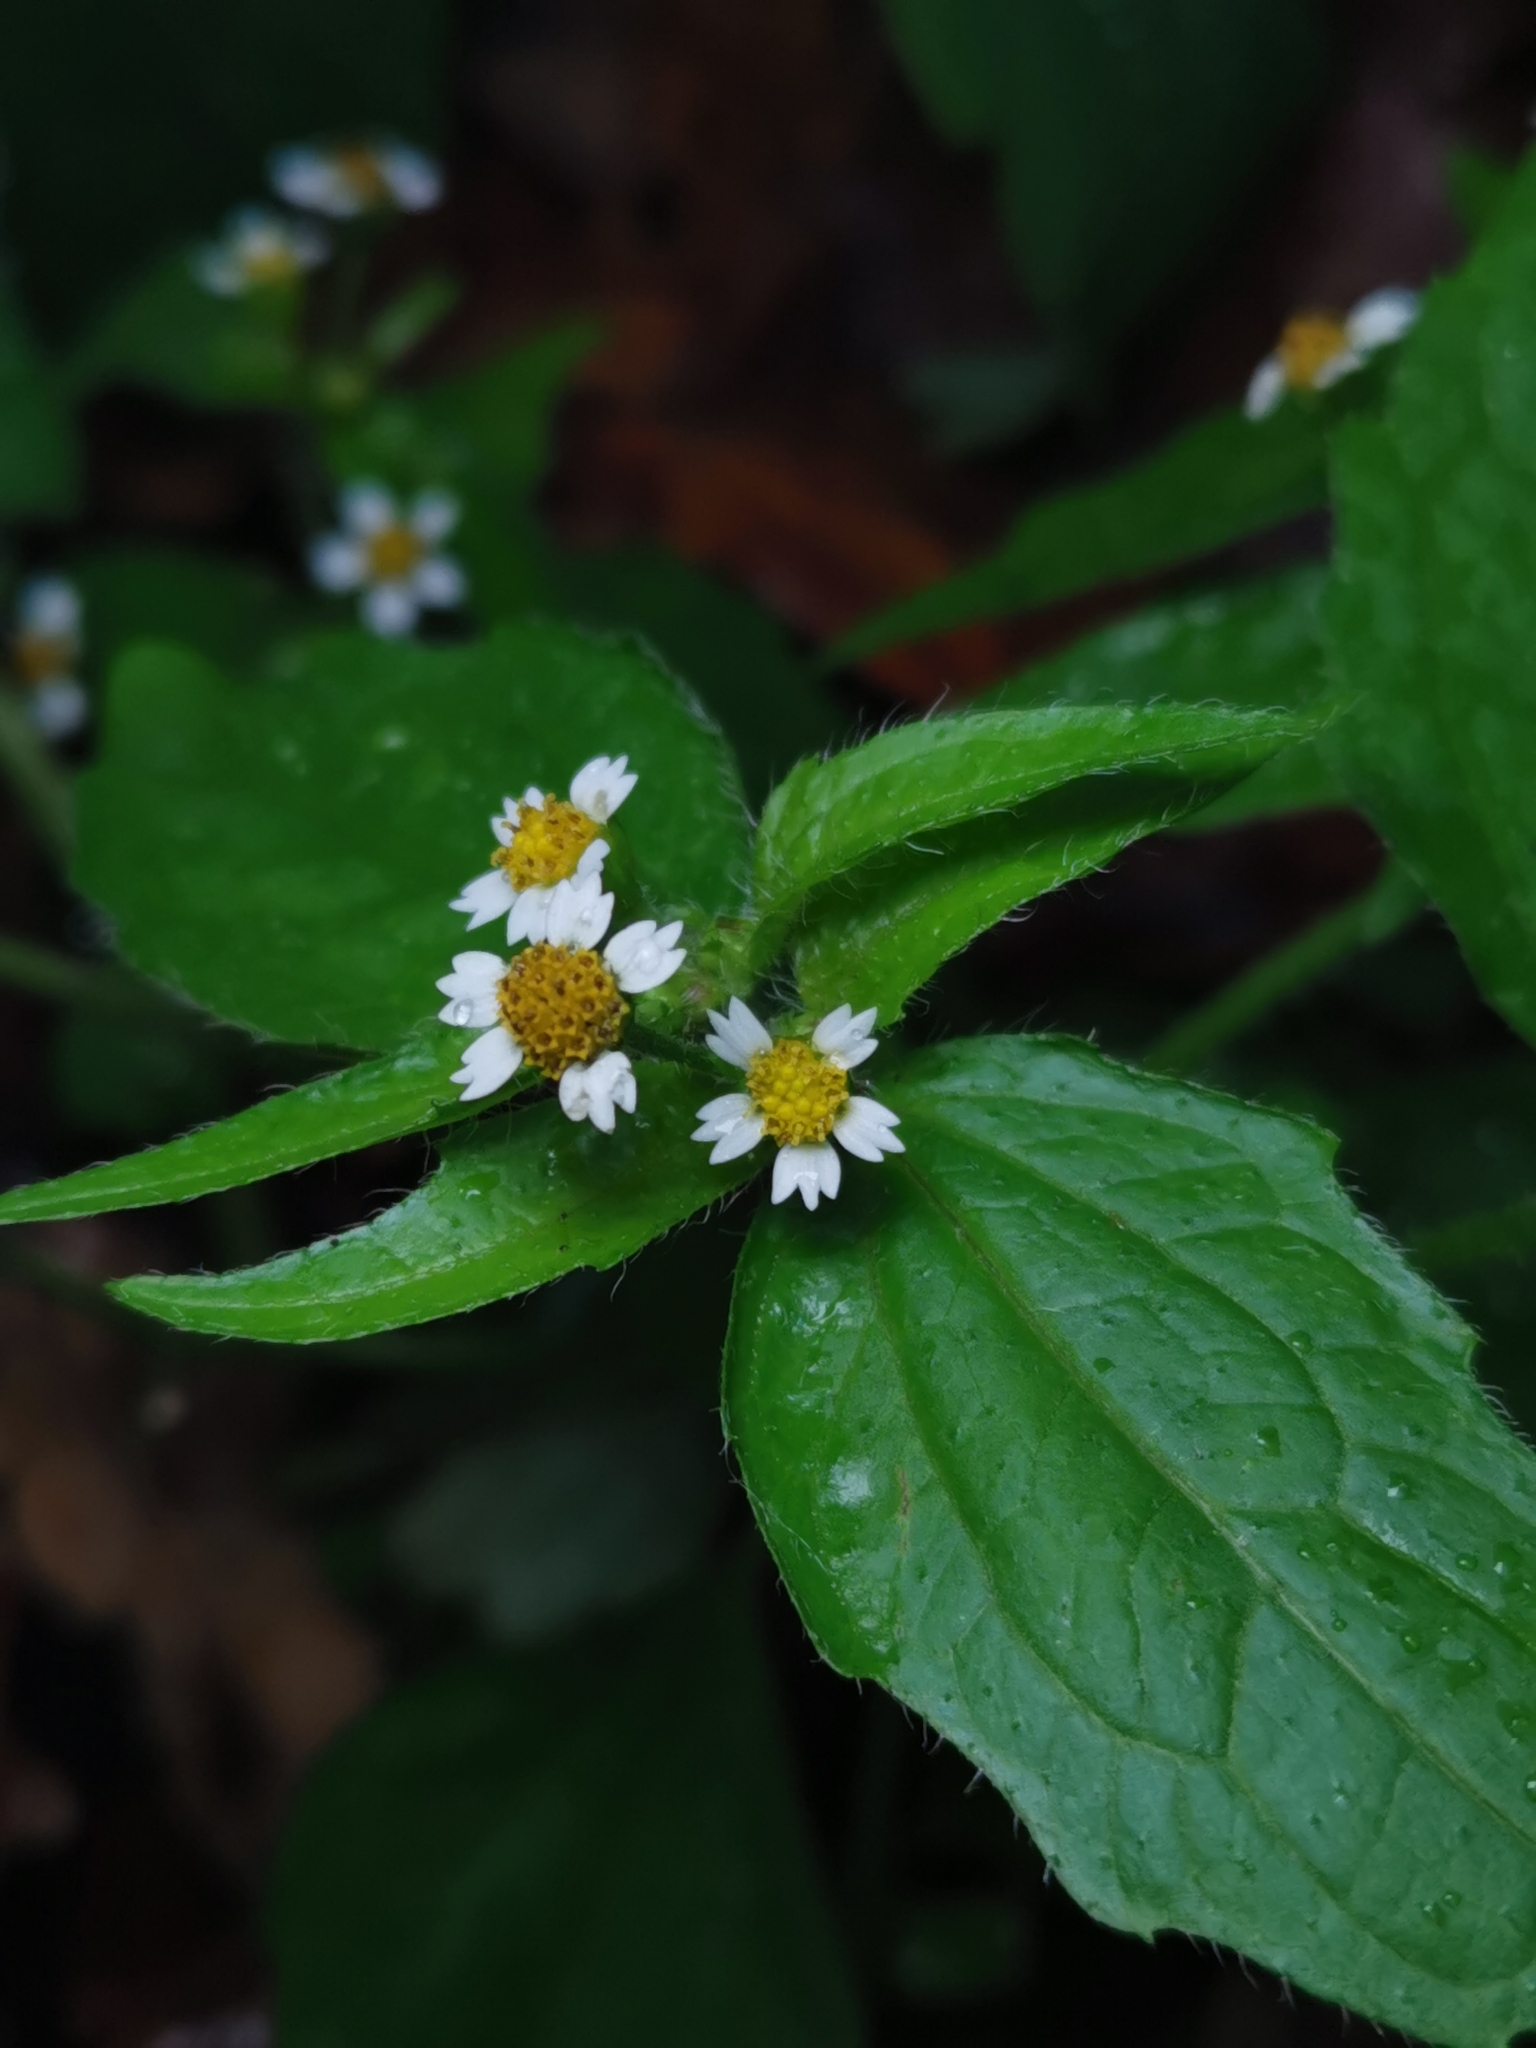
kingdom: Plantae
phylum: Tracheophyta
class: Magnoliopsida
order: Asterales
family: Asteraceae
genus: Galinsoga
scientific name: Galinsoga quadriradiata
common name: Shaggy soldier
